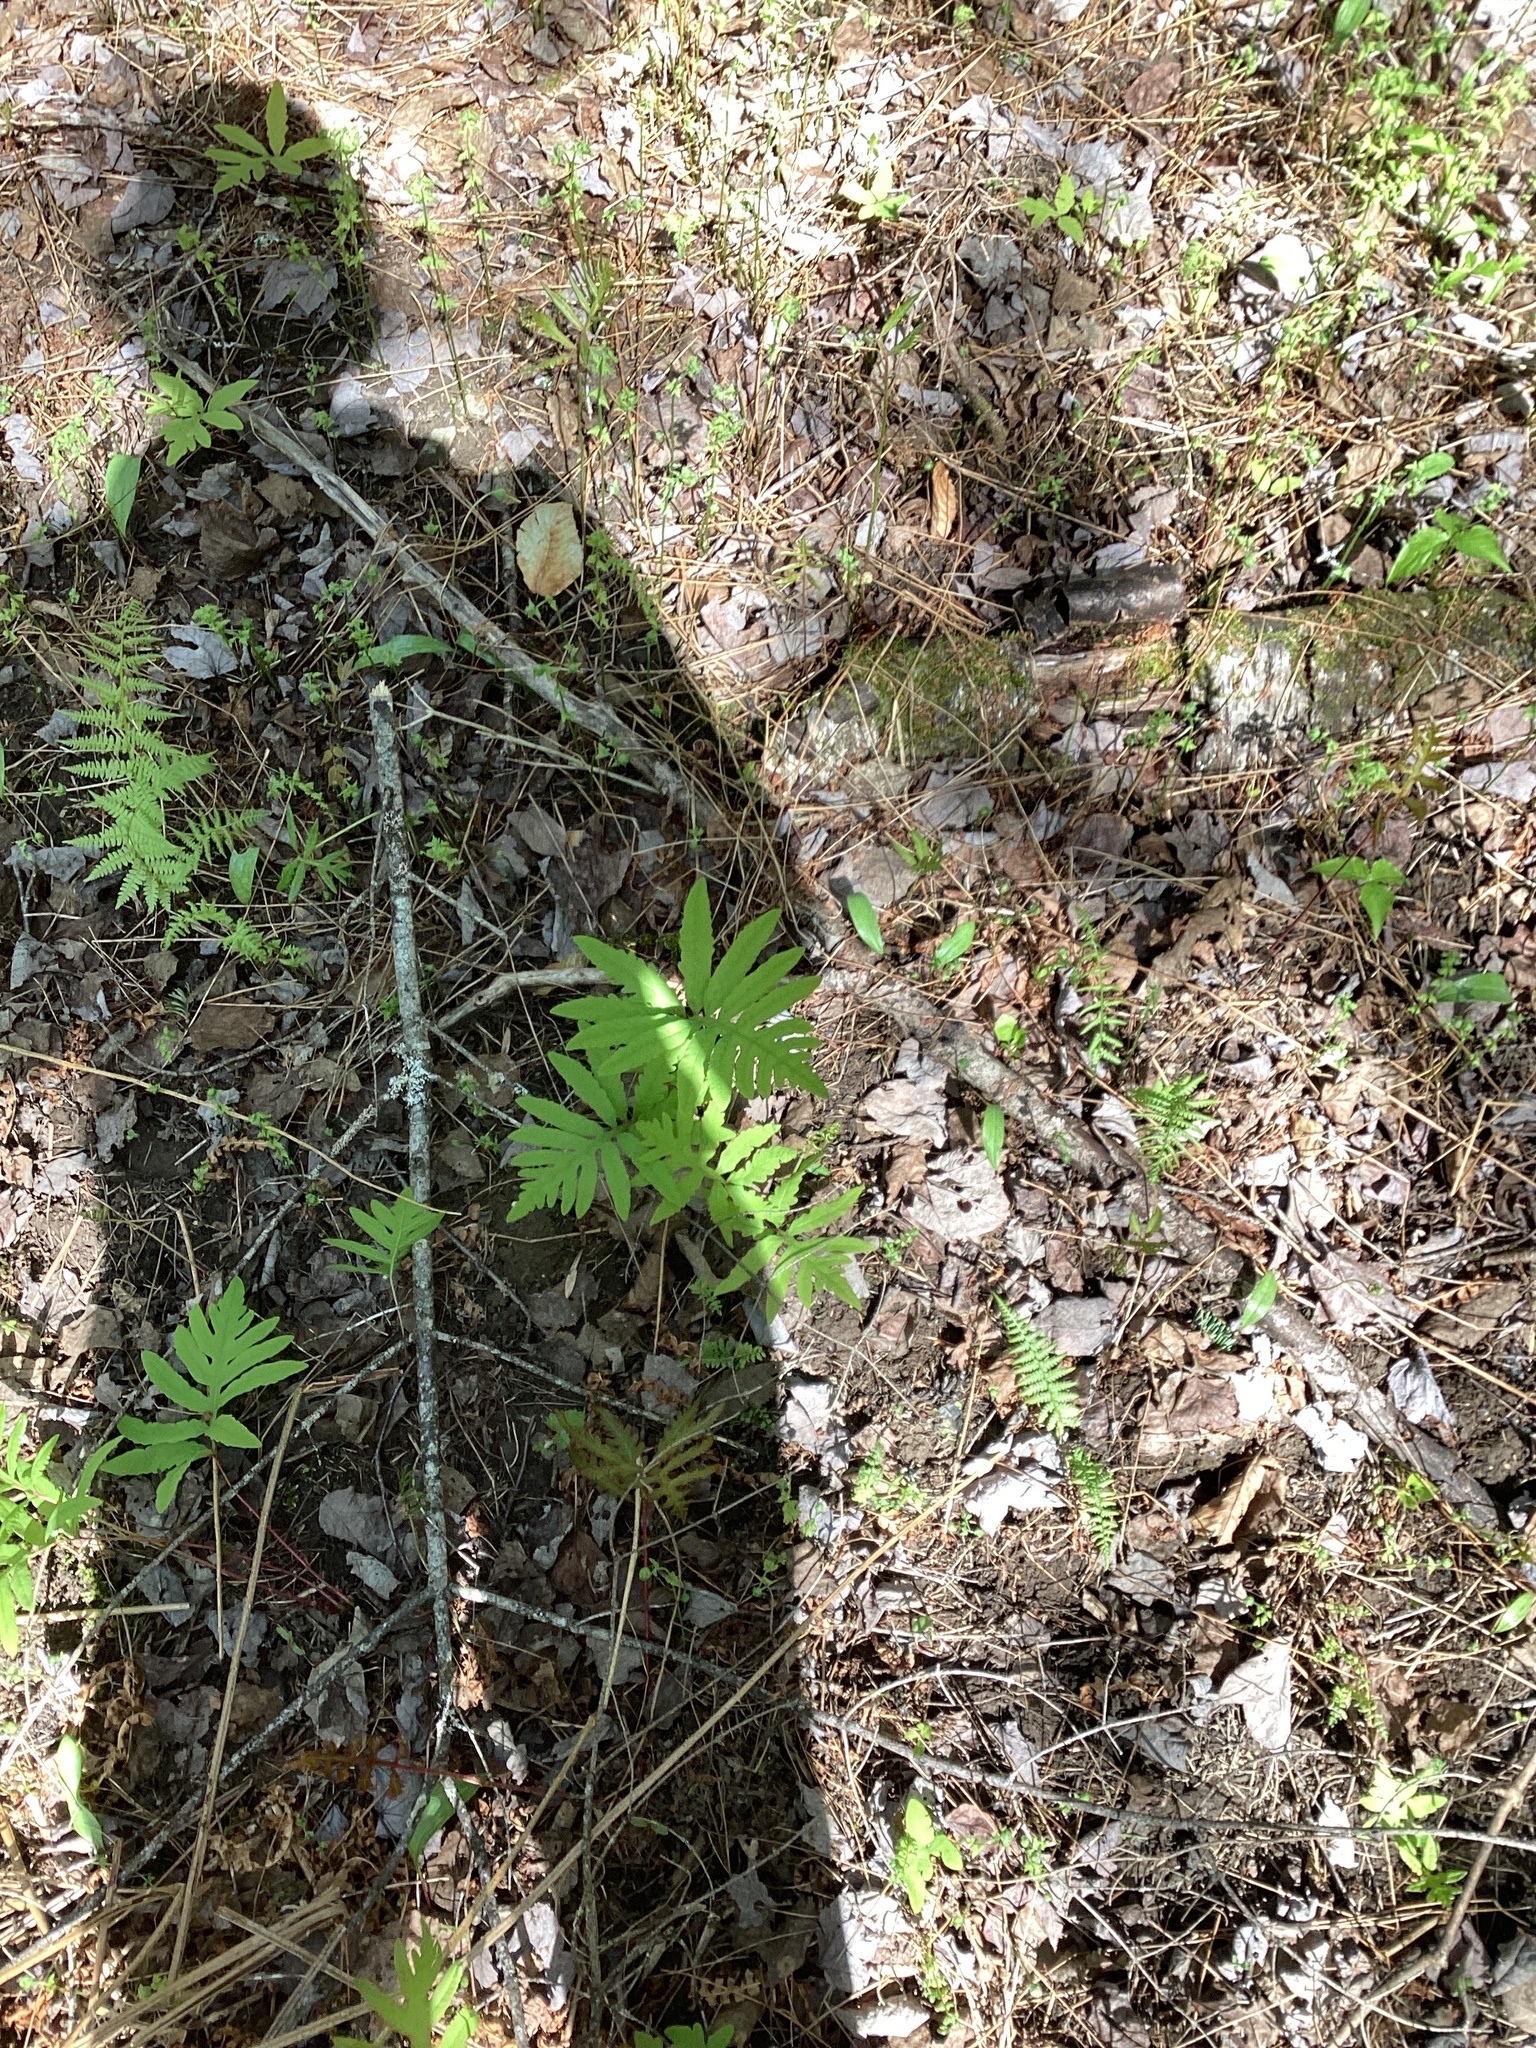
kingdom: Plantae
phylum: Tracheophyta
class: Polypodiopsida
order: Polypodiales
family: Onocleaceae
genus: Onoclea
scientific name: Onoclea sensibilis
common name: Sensitive fern
